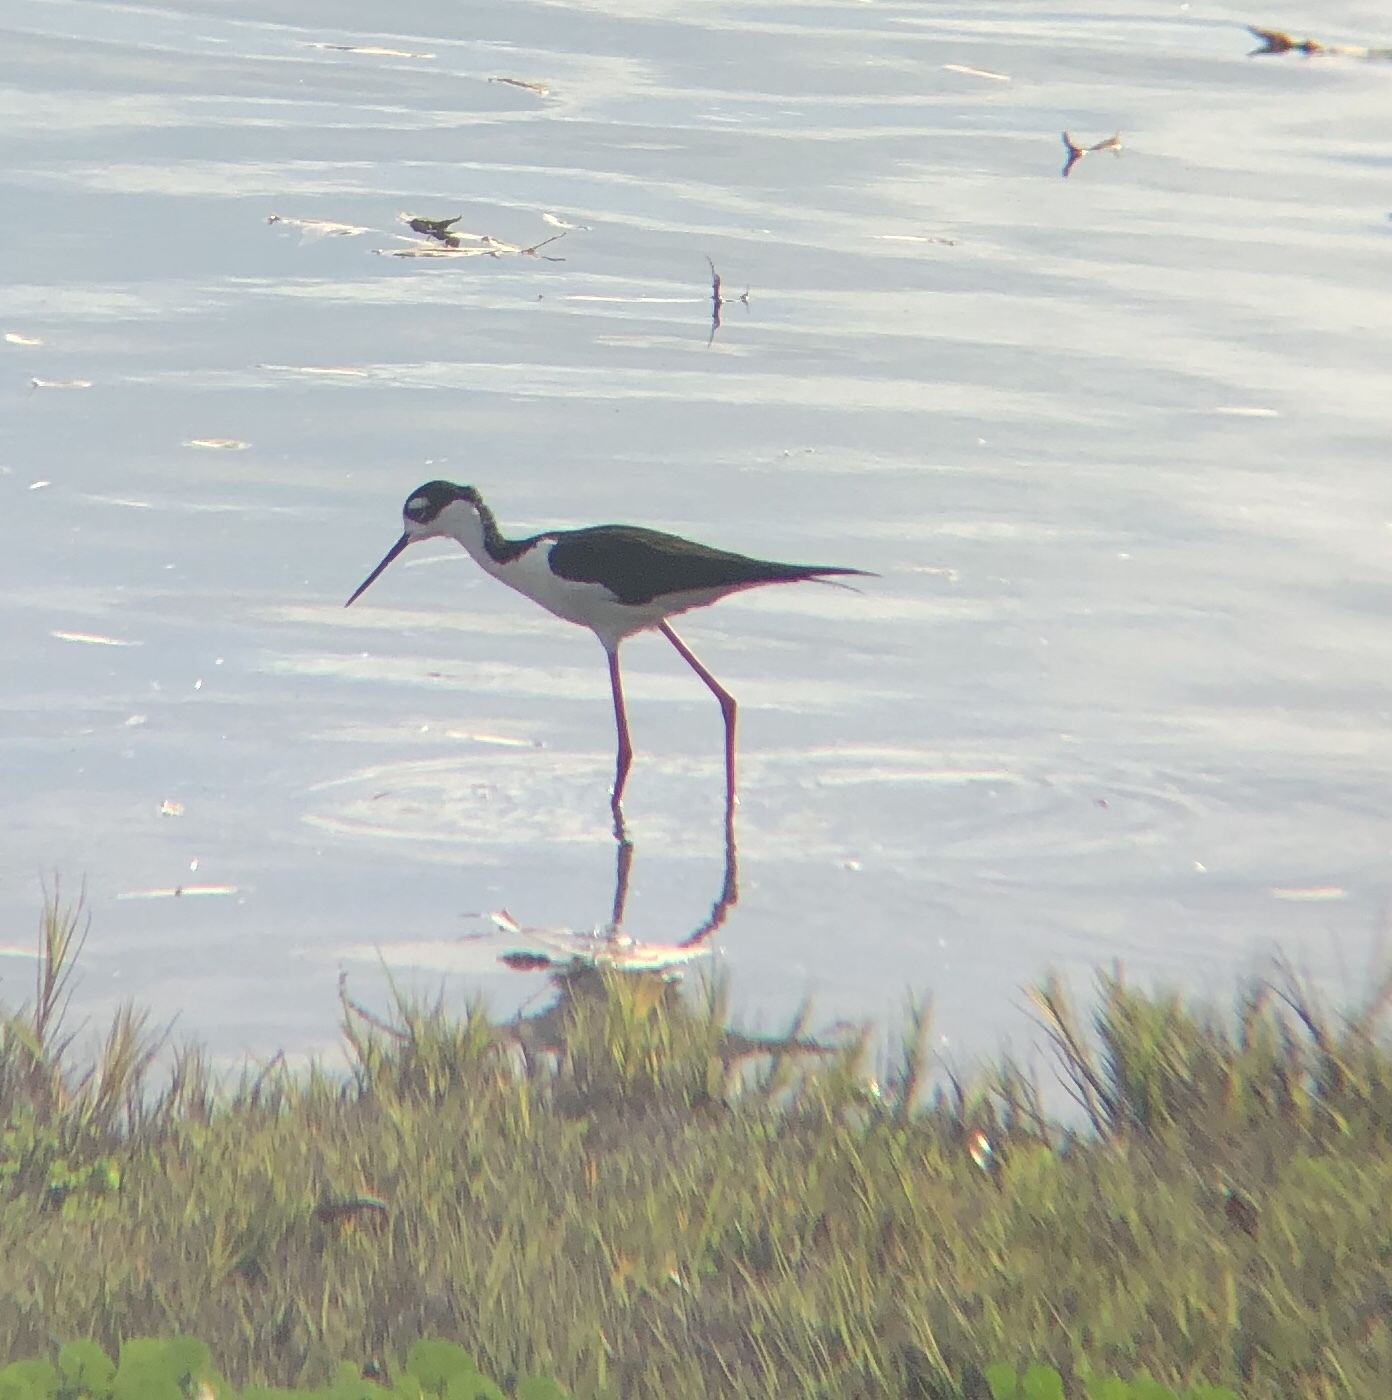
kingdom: Animalia
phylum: Chordata
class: Aves
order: Charadriiformes
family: Recurvirostridae
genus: Himantopus
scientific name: Himantopus mexicanus
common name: Black-necked stilt
